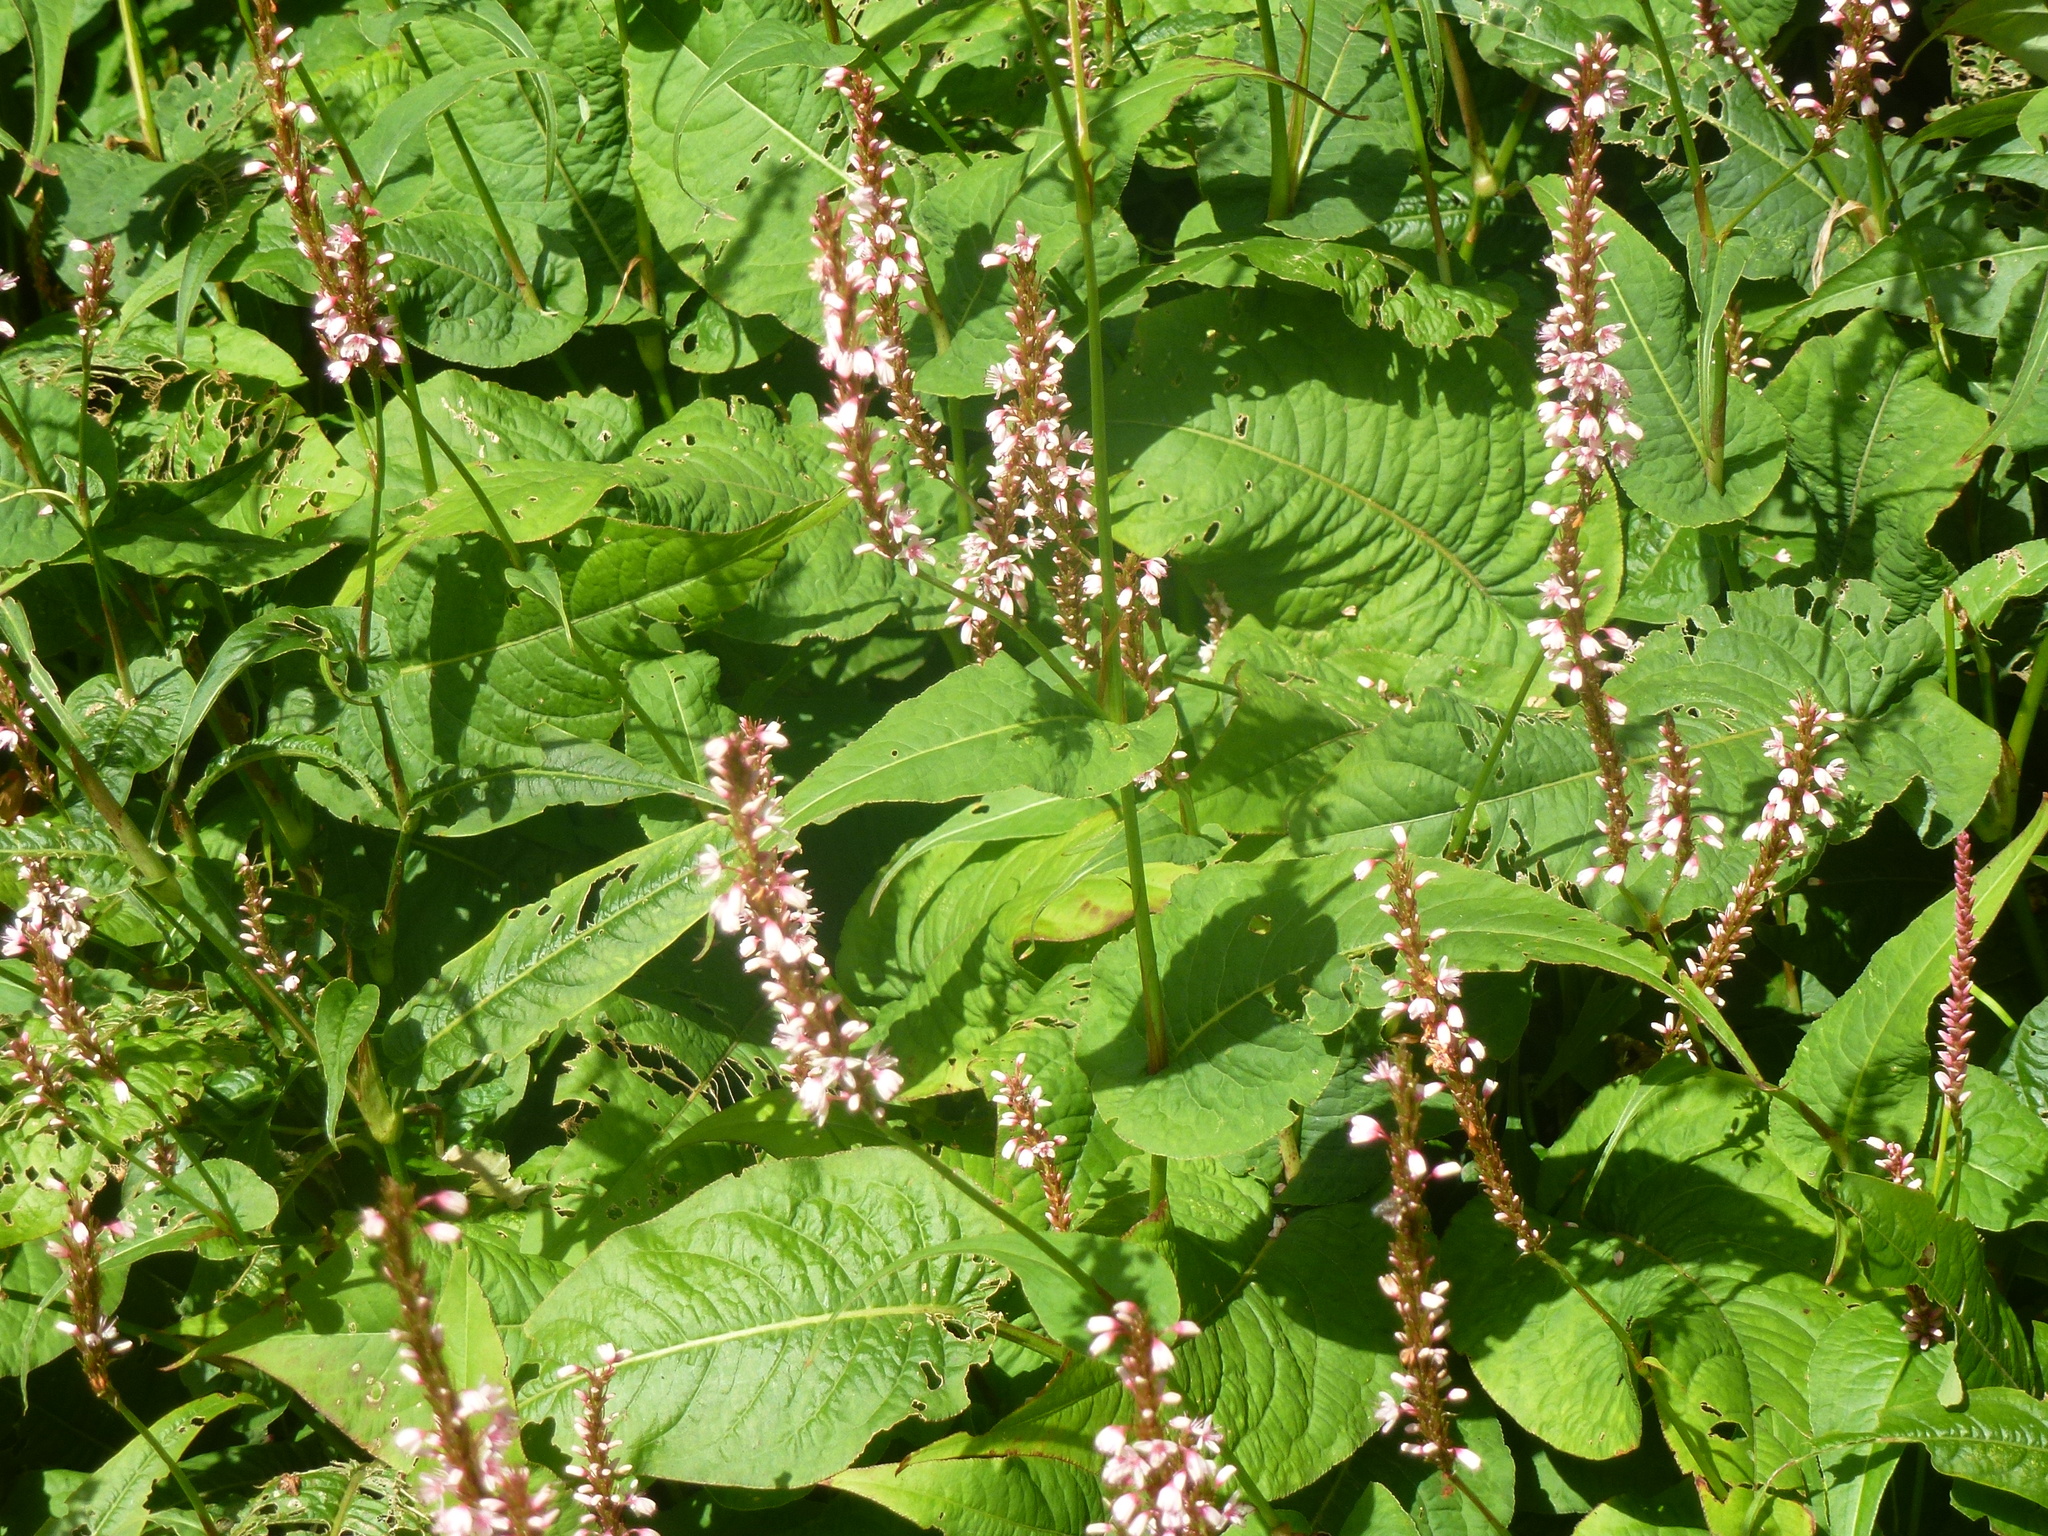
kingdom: Plantae
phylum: Tracheophyta
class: Magnoliopsida
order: Caryophyllales
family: Polygonaceae
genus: Bistorta
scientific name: Bistorta amplexicaulis
